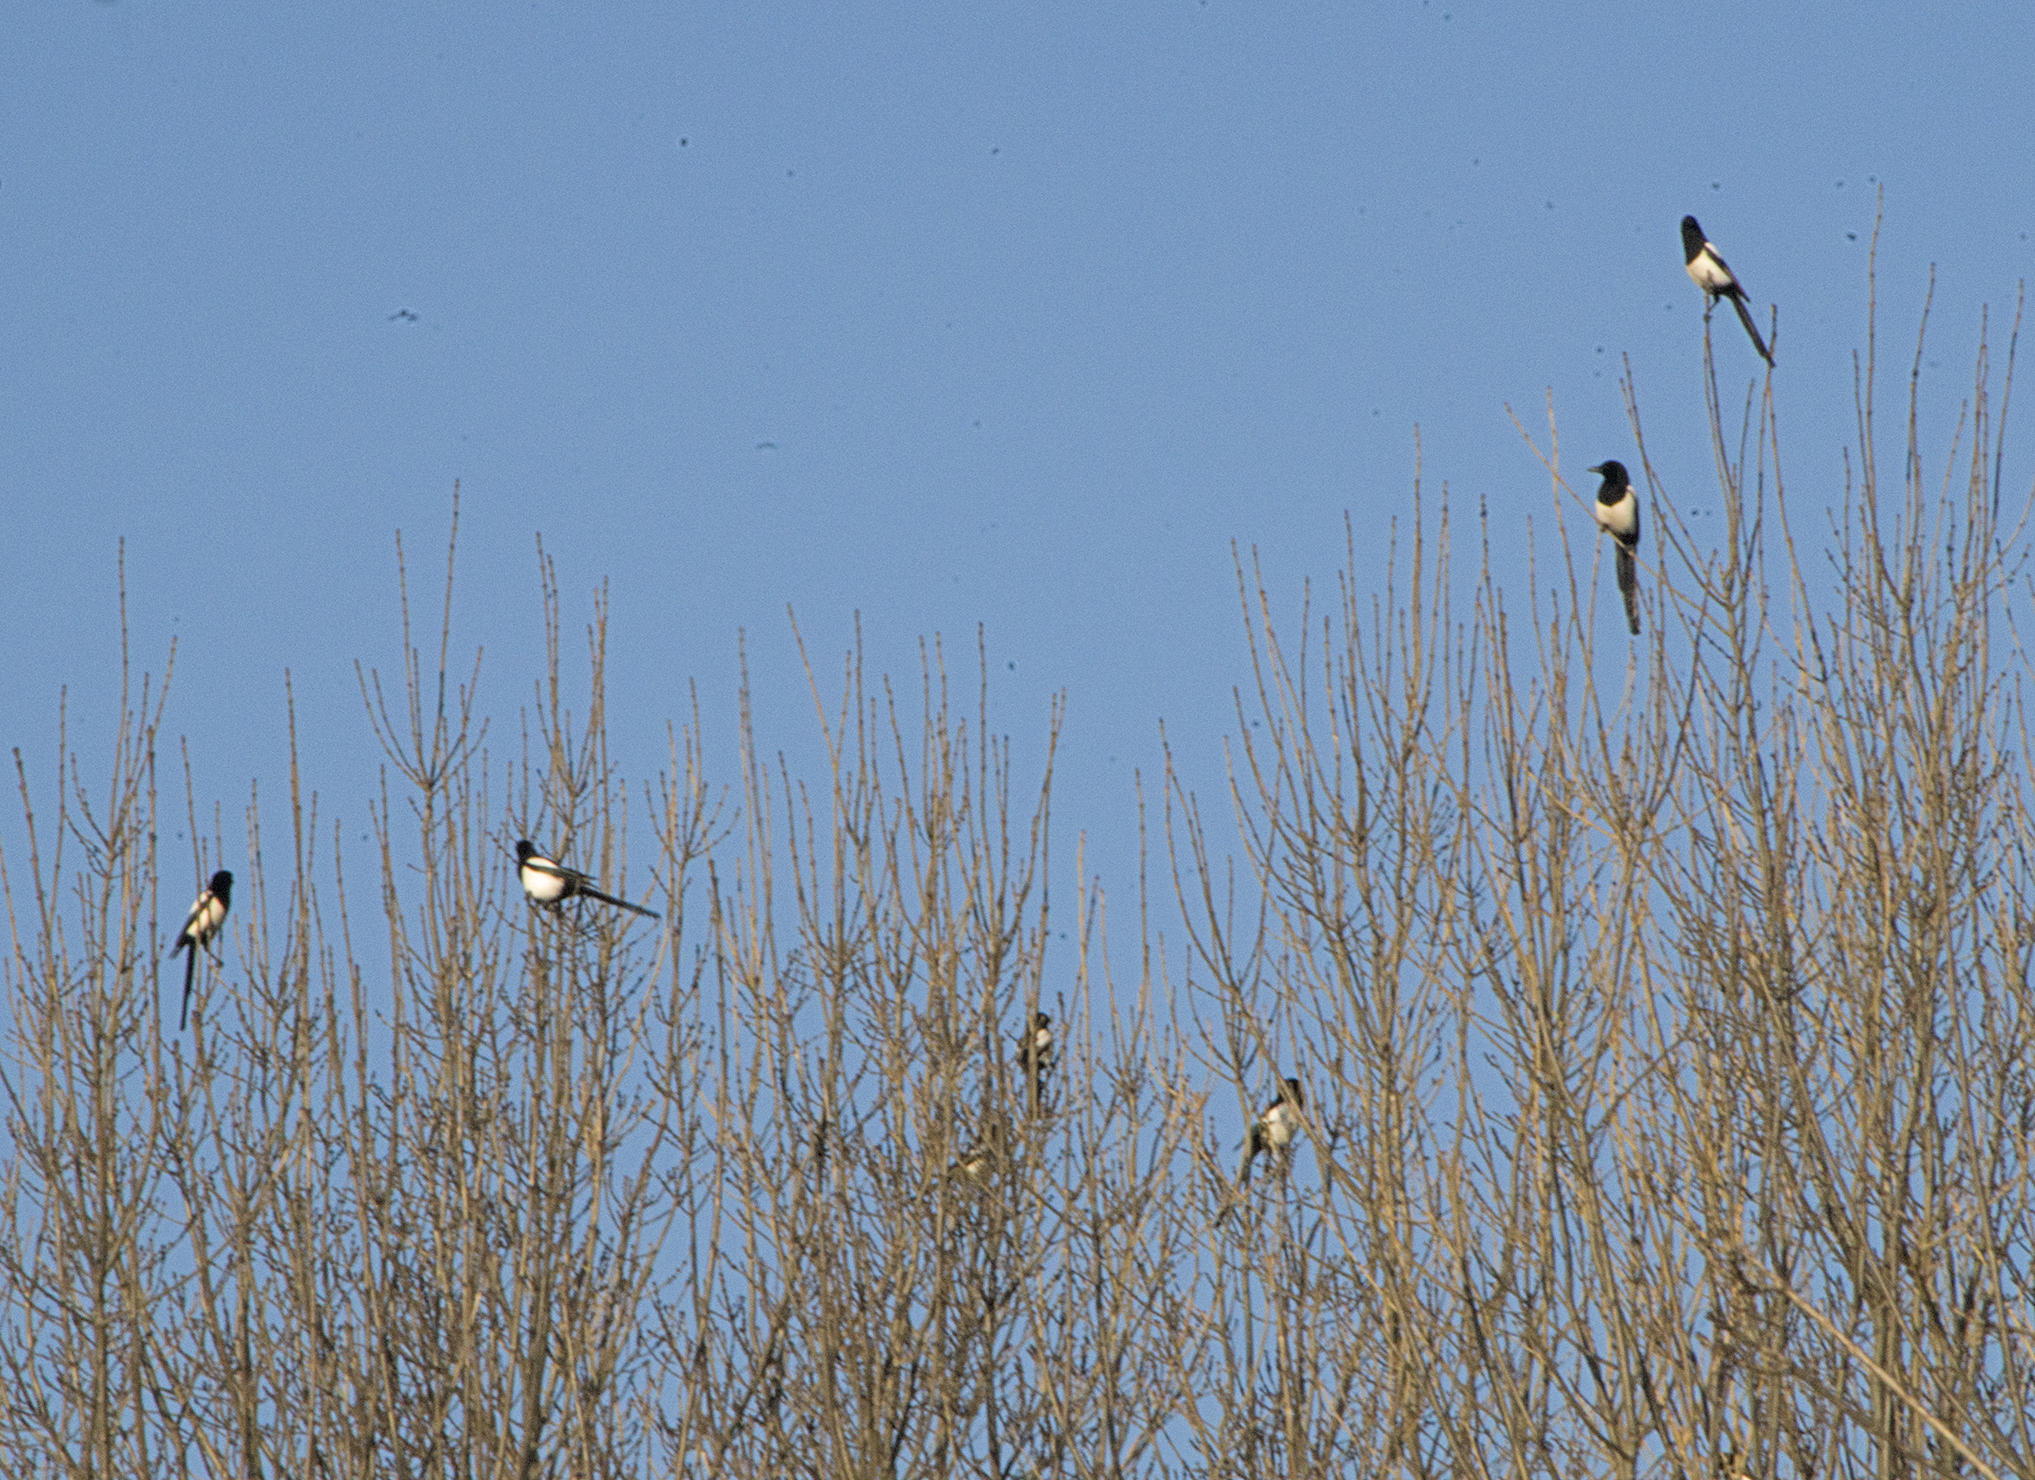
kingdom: Animalia
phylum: Chordata
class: Aves
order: Passeriformes
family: Corvidae
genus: Pica
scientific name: Pica pica
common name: Eurasian magpie
